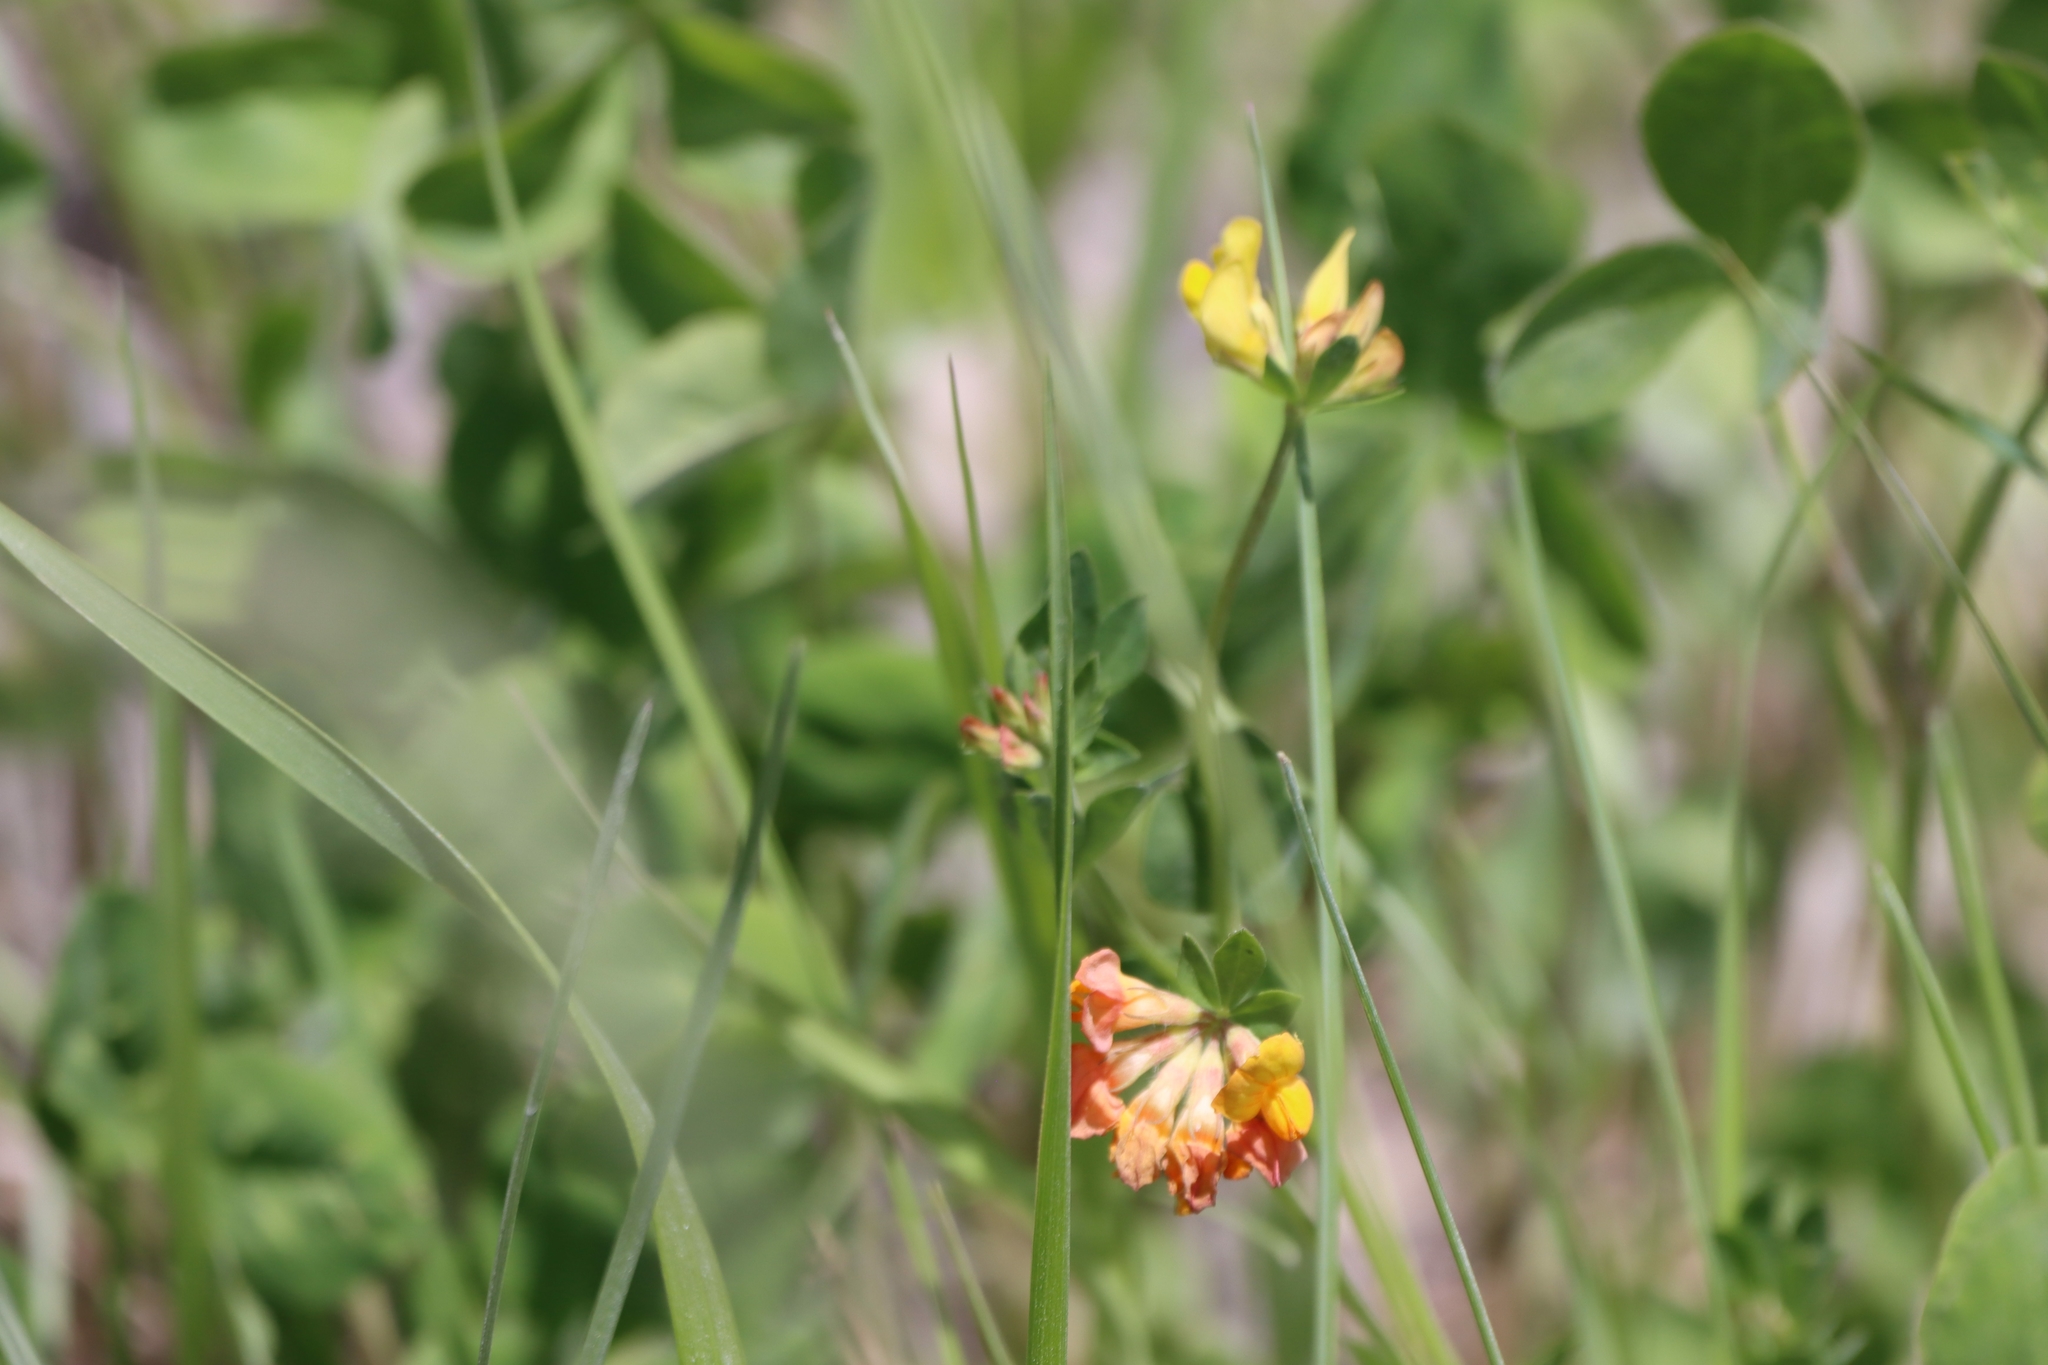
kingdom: Plantae
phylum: Tracheophyta
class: Magnoliopsida
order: Fabales
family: Fabaceae
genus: Lotus
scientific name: Lotus corniculatus
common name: Common bird's-foot-trefoil
